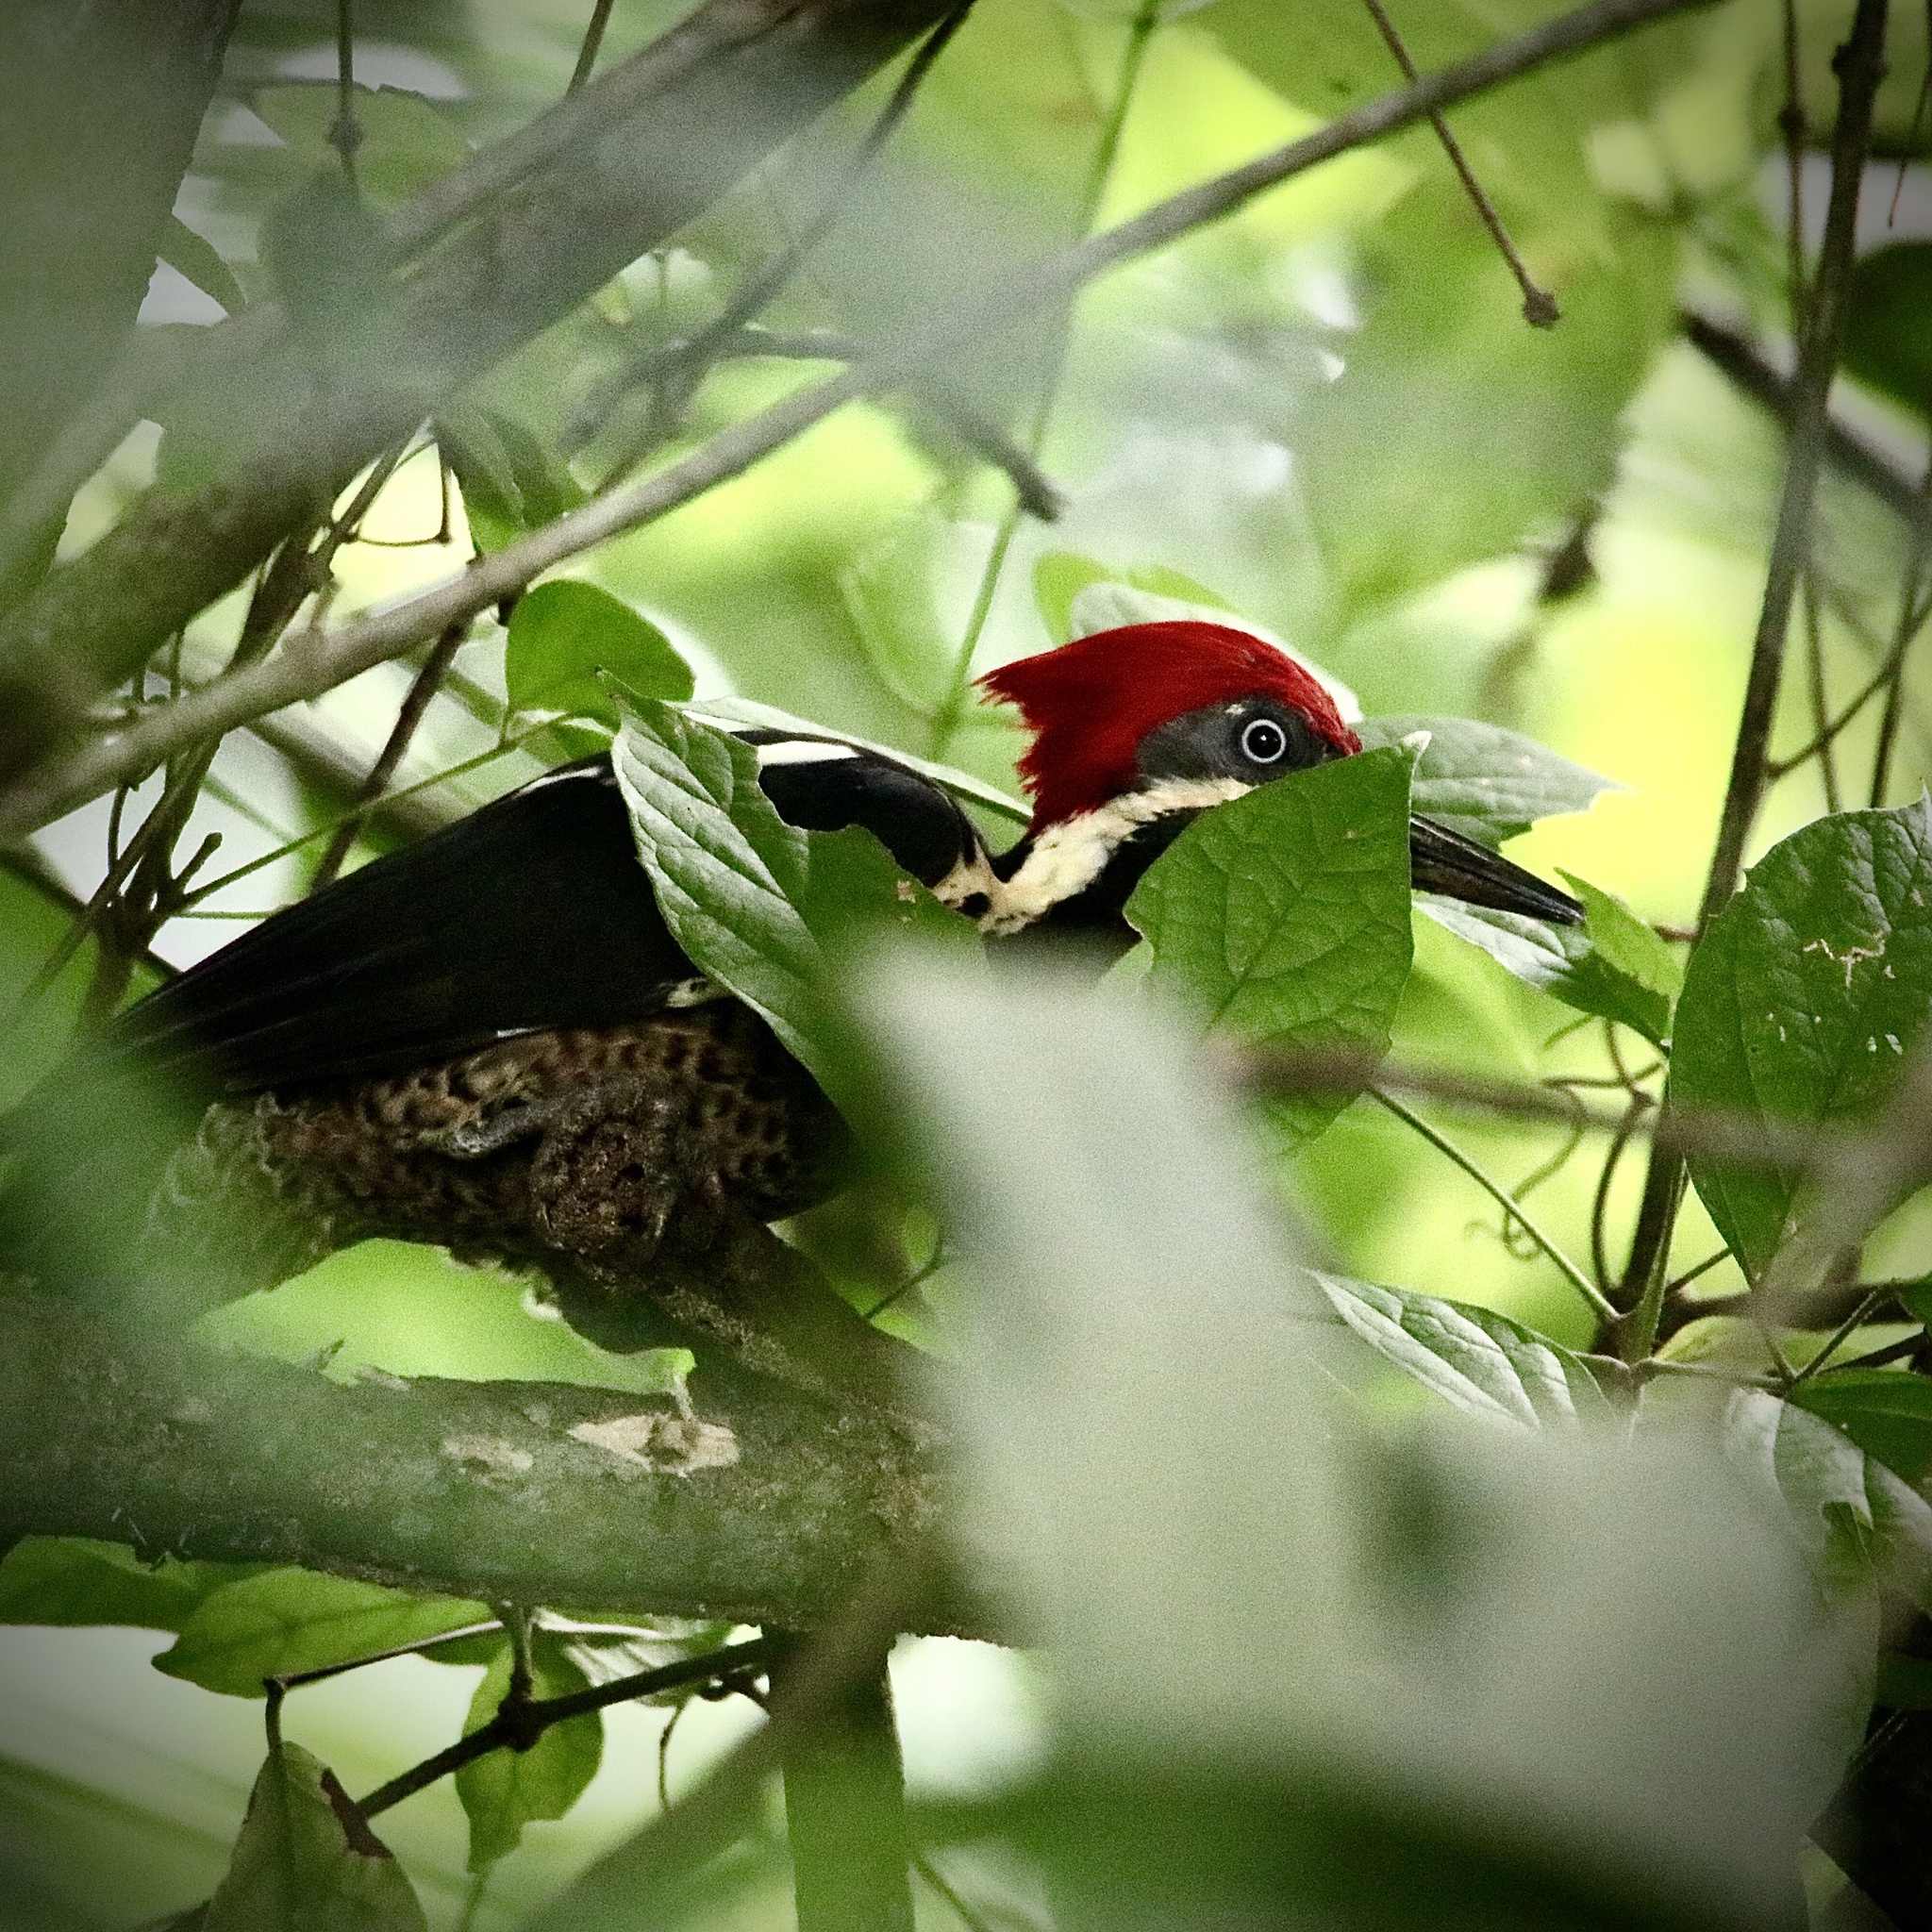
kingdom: Animalia
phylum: Chordata
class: Aves
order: Piciformes
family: Picidae
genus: Dryocopus
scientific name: Dryocopus lineatus
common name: Lineated woodpecker
